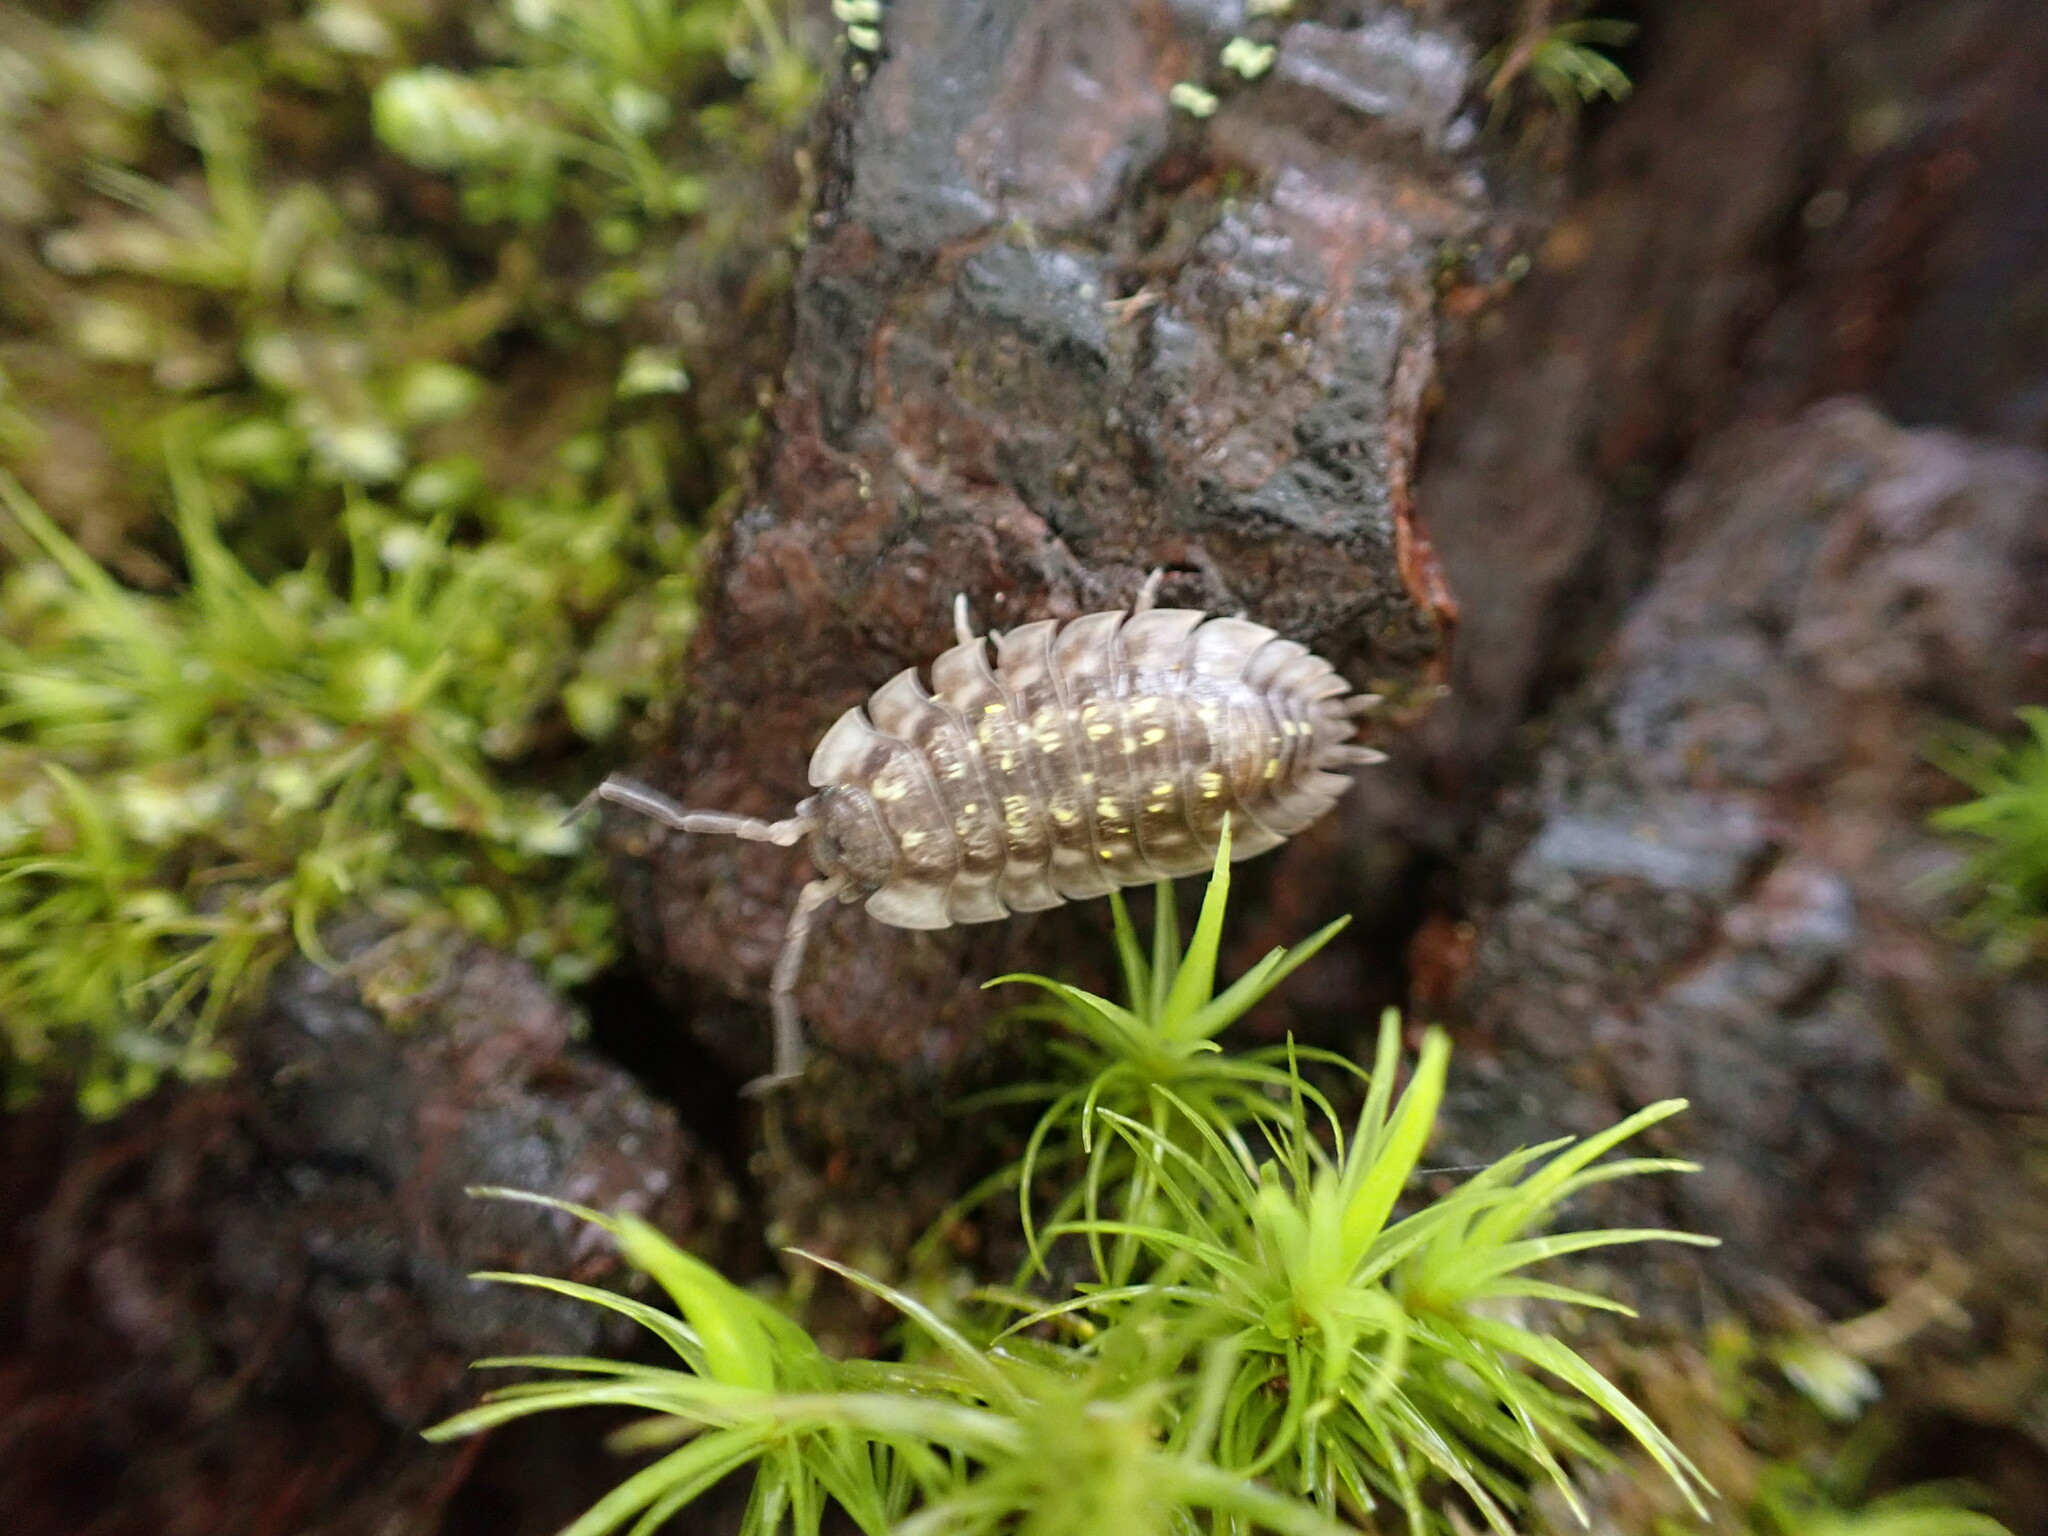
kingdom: Animalia
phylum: Arthropoda
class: Malacostraca
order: Isopoda
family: Oniscidae
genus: Oniscus
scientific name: Oniscus asellus
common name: Common shiny woodlouse
